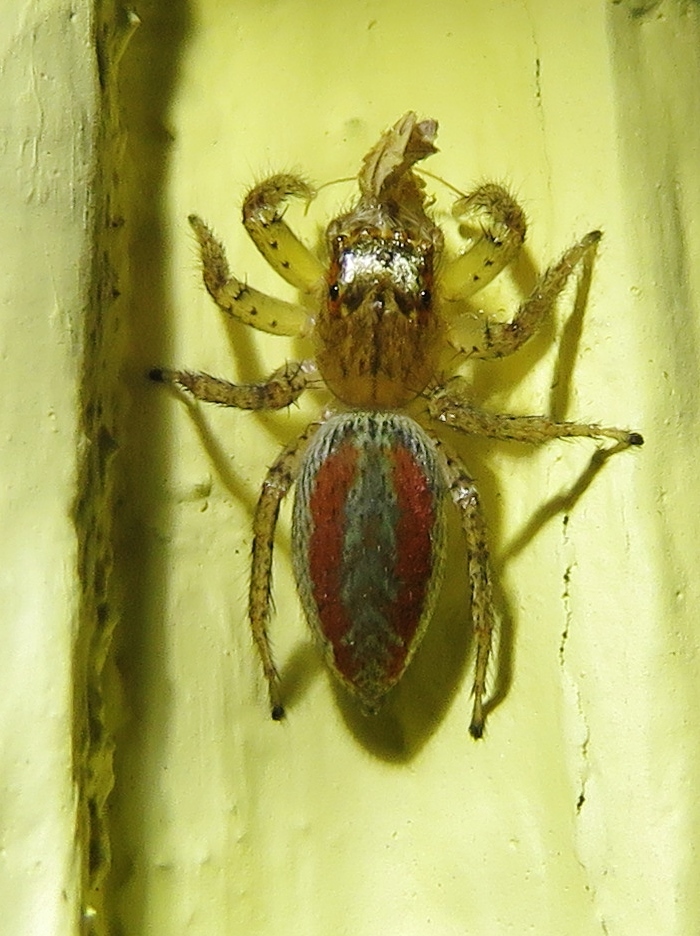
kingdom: Animalia
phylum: Arthropoda
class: Arachnida
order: Araneae
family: Salticidae
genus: Maevia
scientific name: Maevia inclemens
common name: Dimorphic jumper
